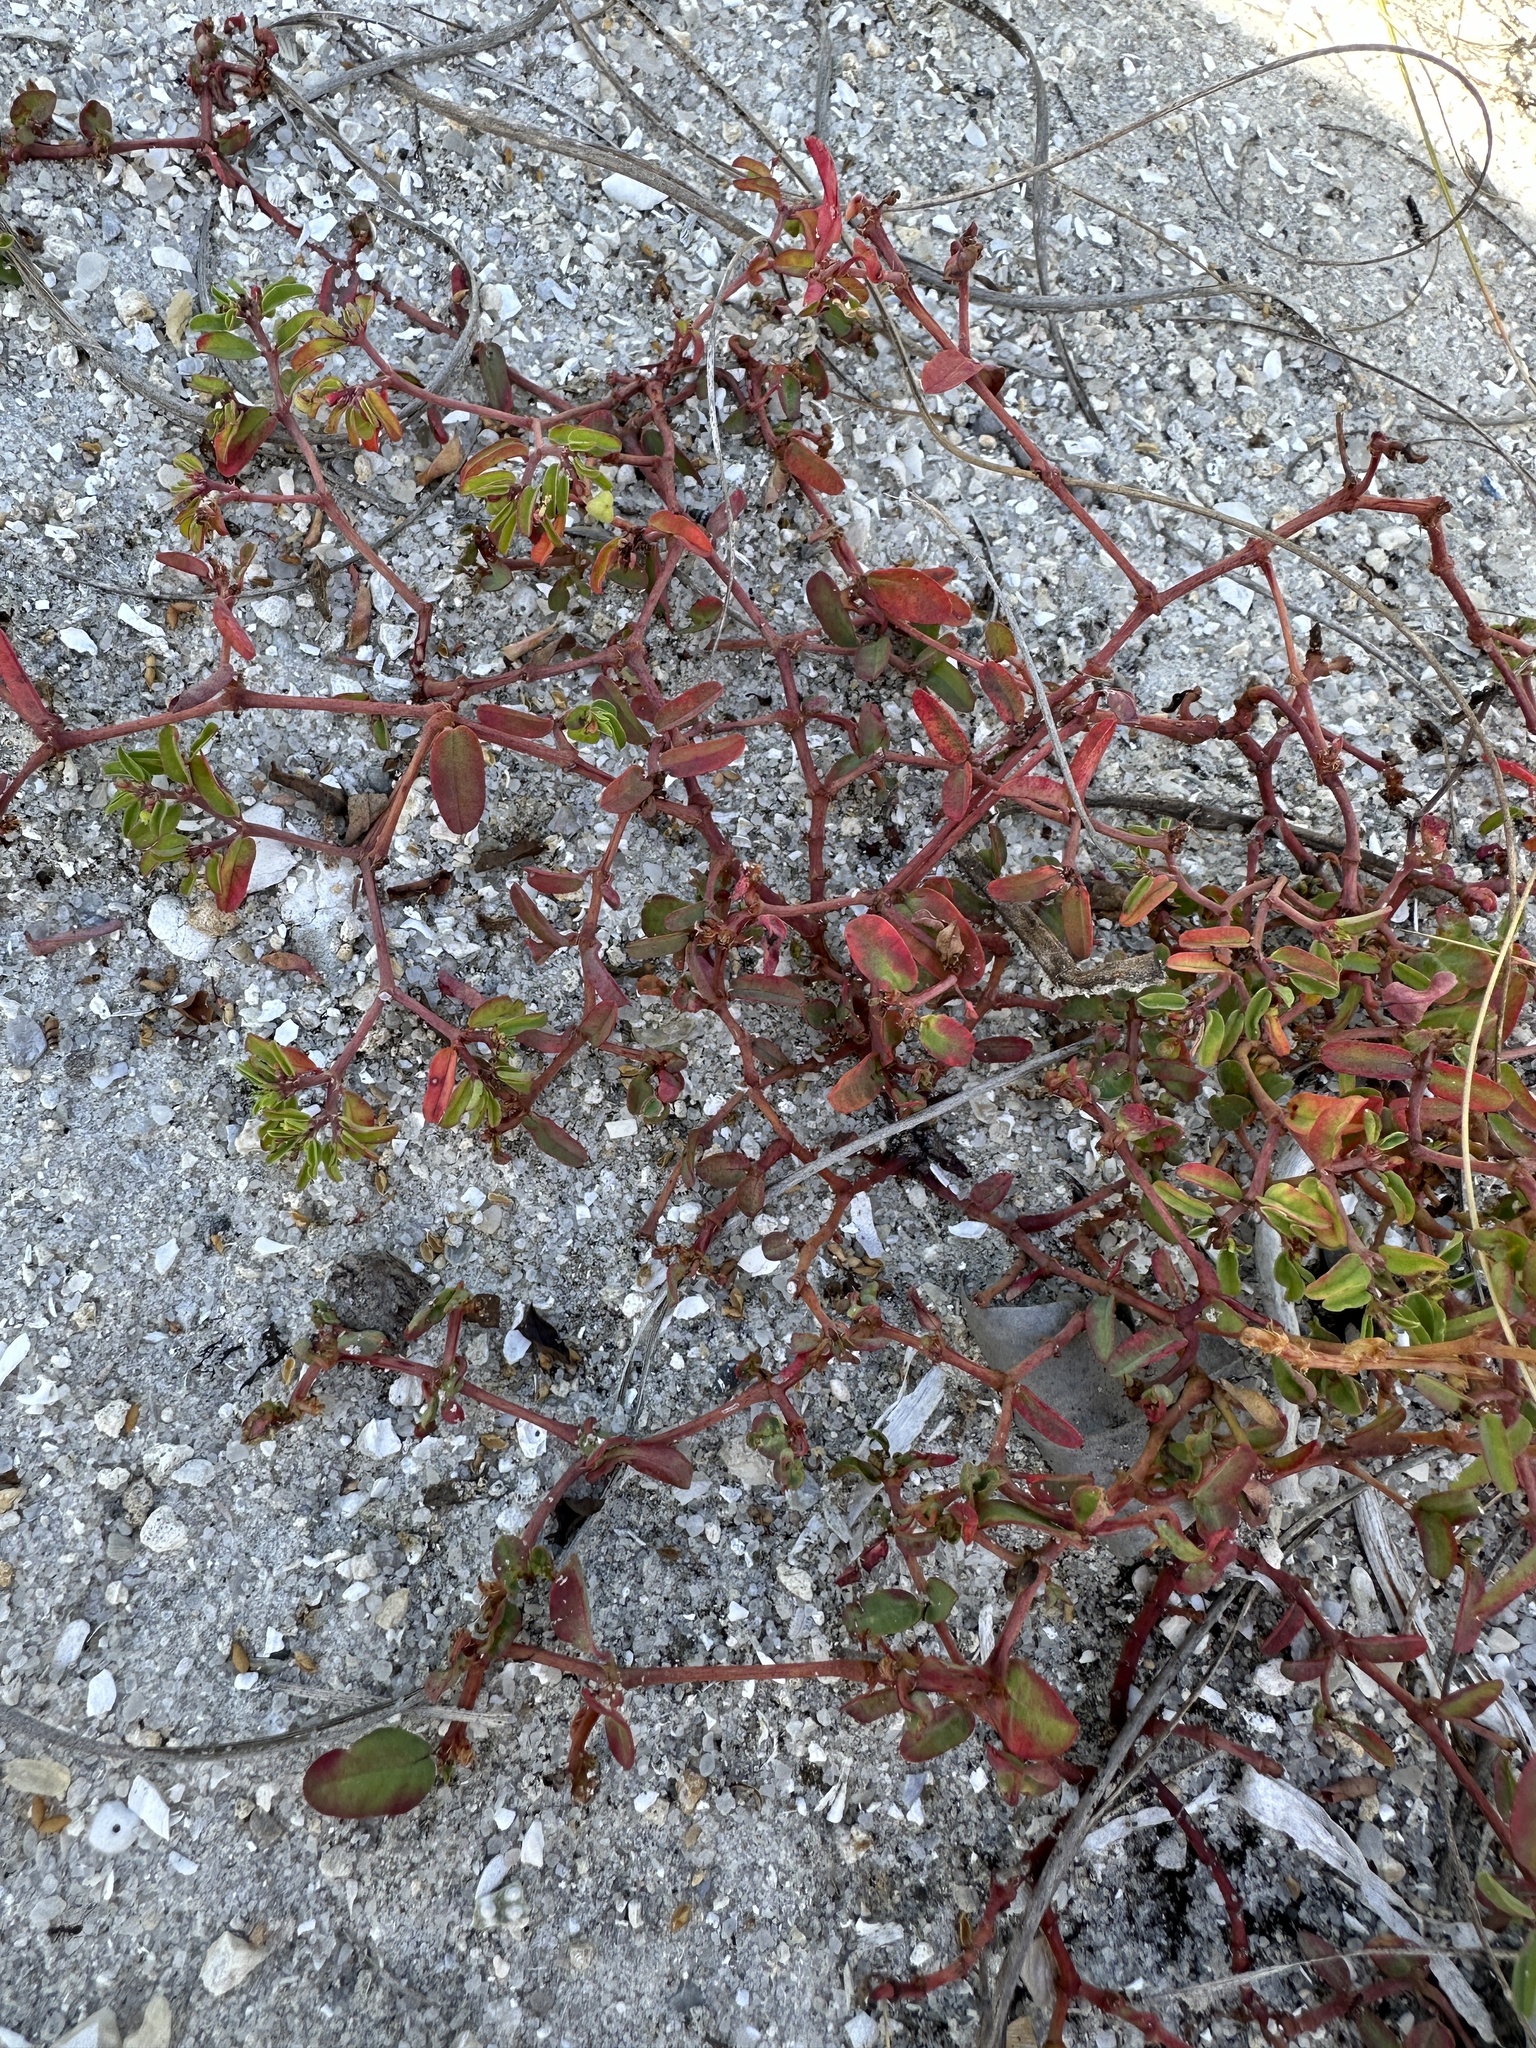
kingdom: Plantae
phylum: Tracheophyta
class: Magnoliopsida
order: Malpighiales
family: Euphorbiaceae
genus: Euphorbia
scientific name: Euphorbia bombensis
